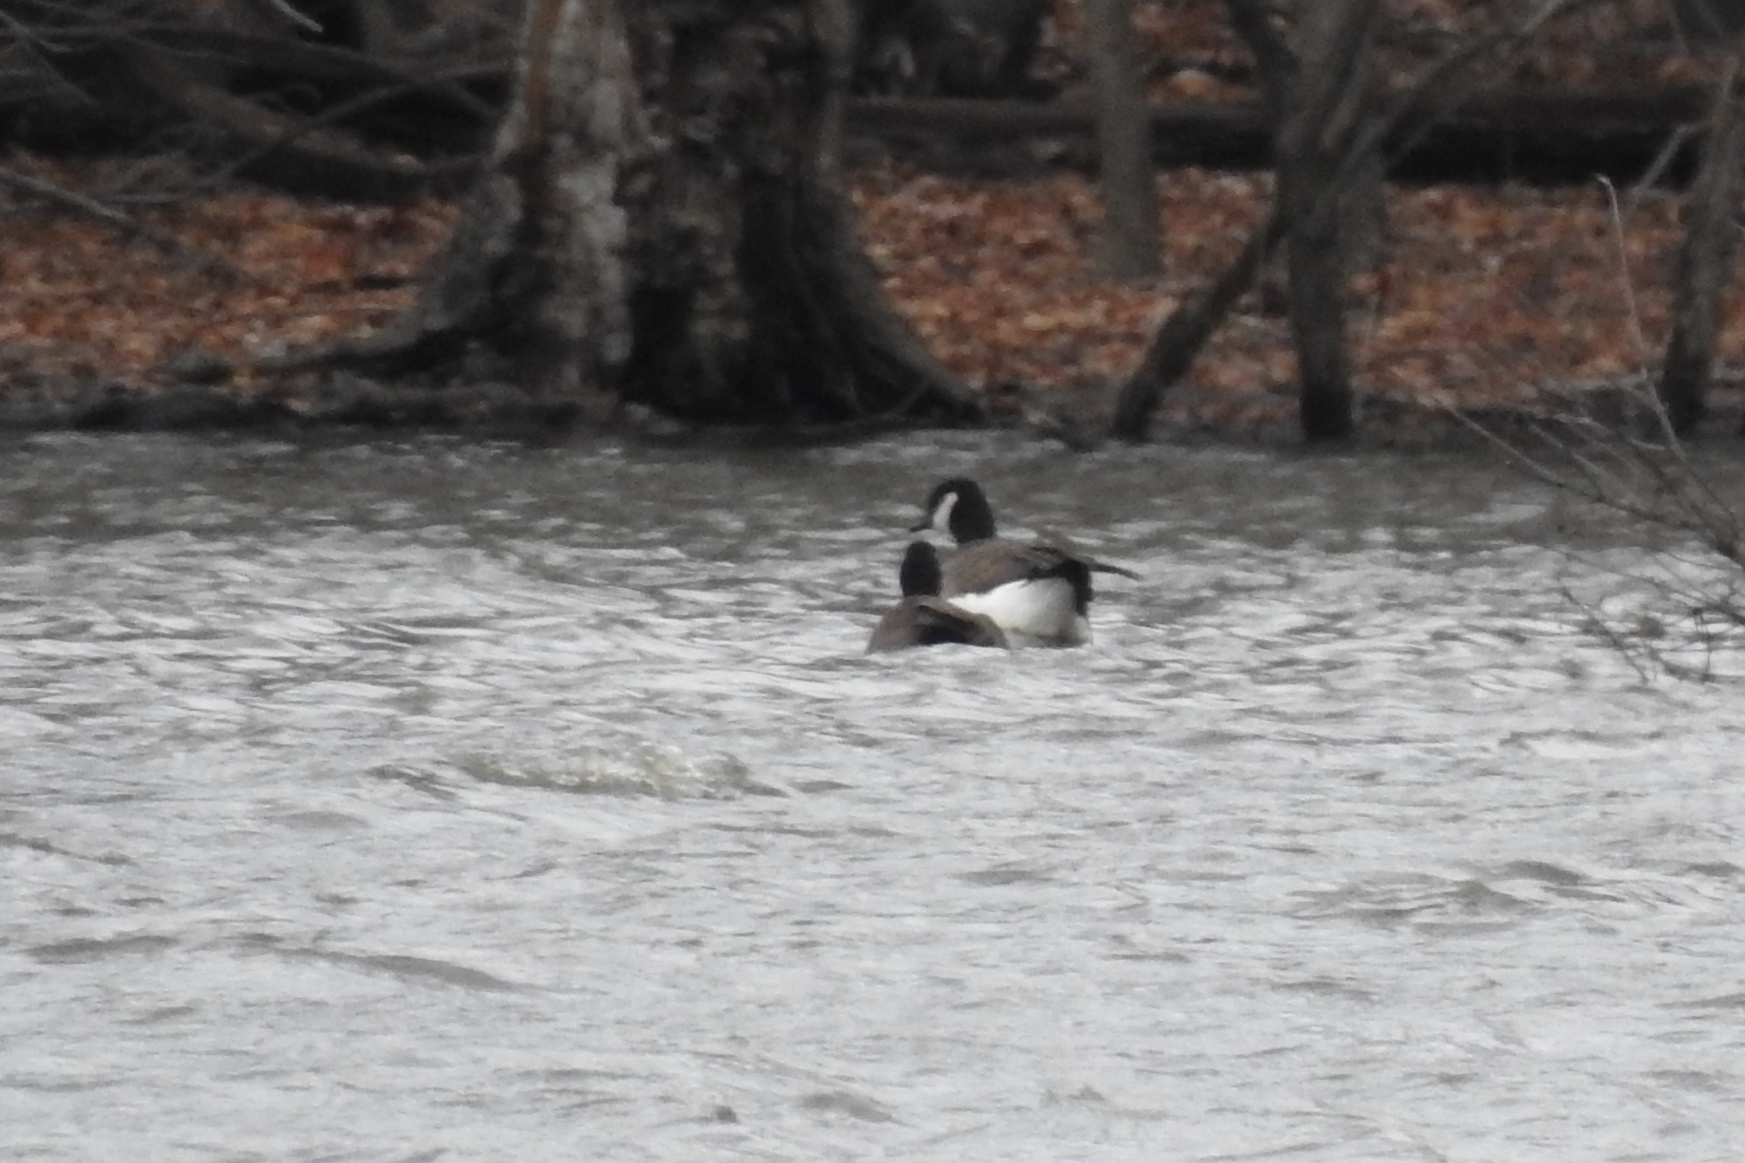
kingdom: Animalia
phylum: Chordata
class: Aves
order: Anseriformes
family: Anatidae
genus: Branta
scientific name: Branta canadensis
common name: Canada goose
